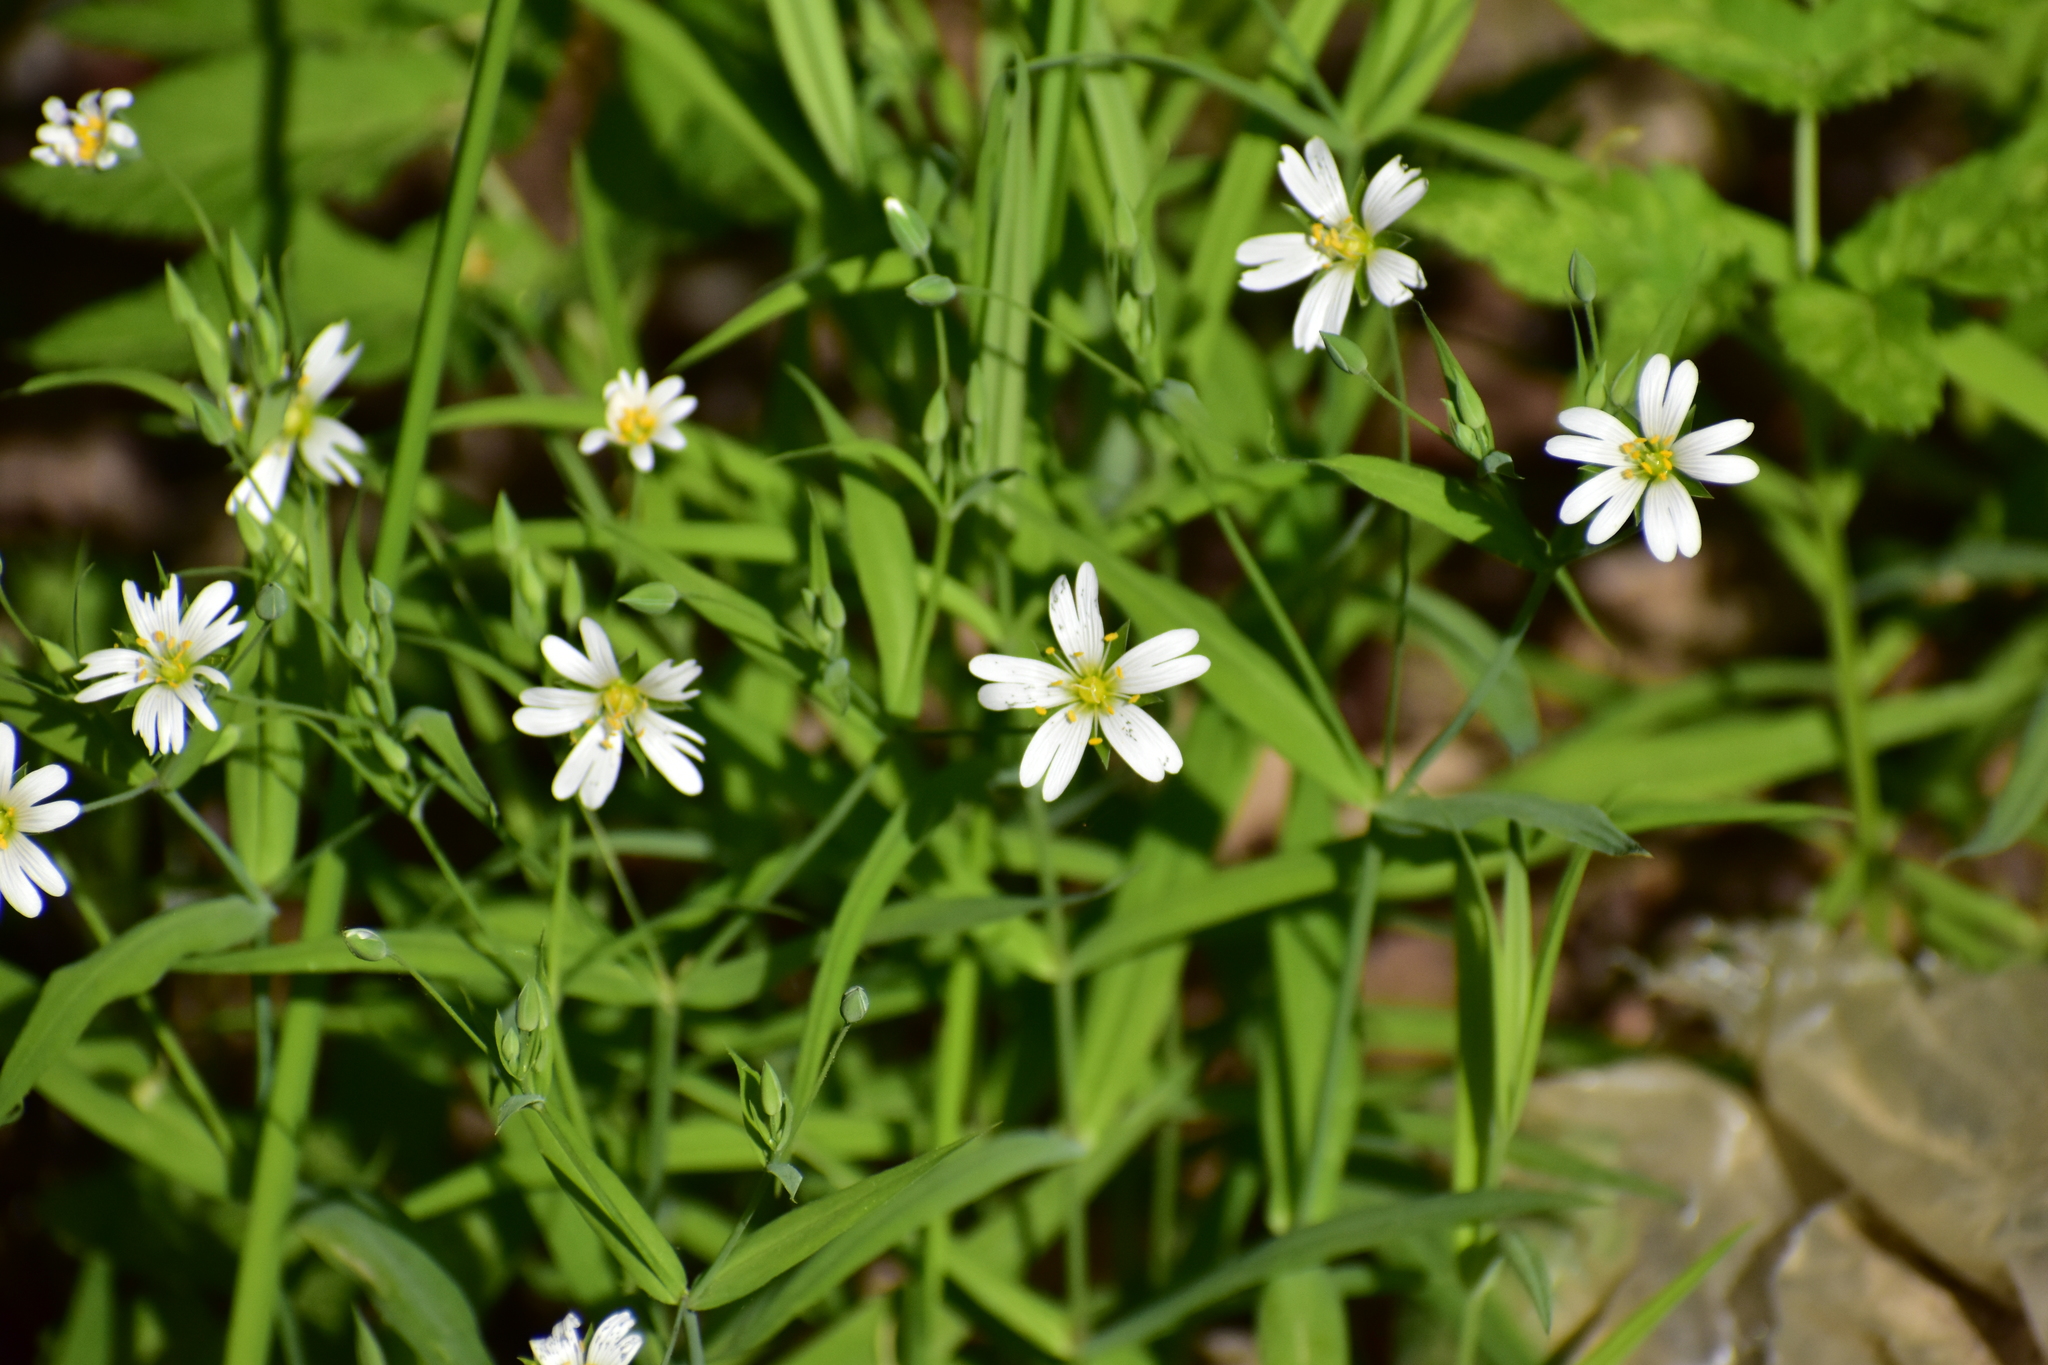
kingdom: Plantae
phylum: Tracheophyta
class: Magnoliopsida
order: Caryophyllales
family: Caryophyllaceae
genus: Rabelera
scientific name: Rabelera holostea
